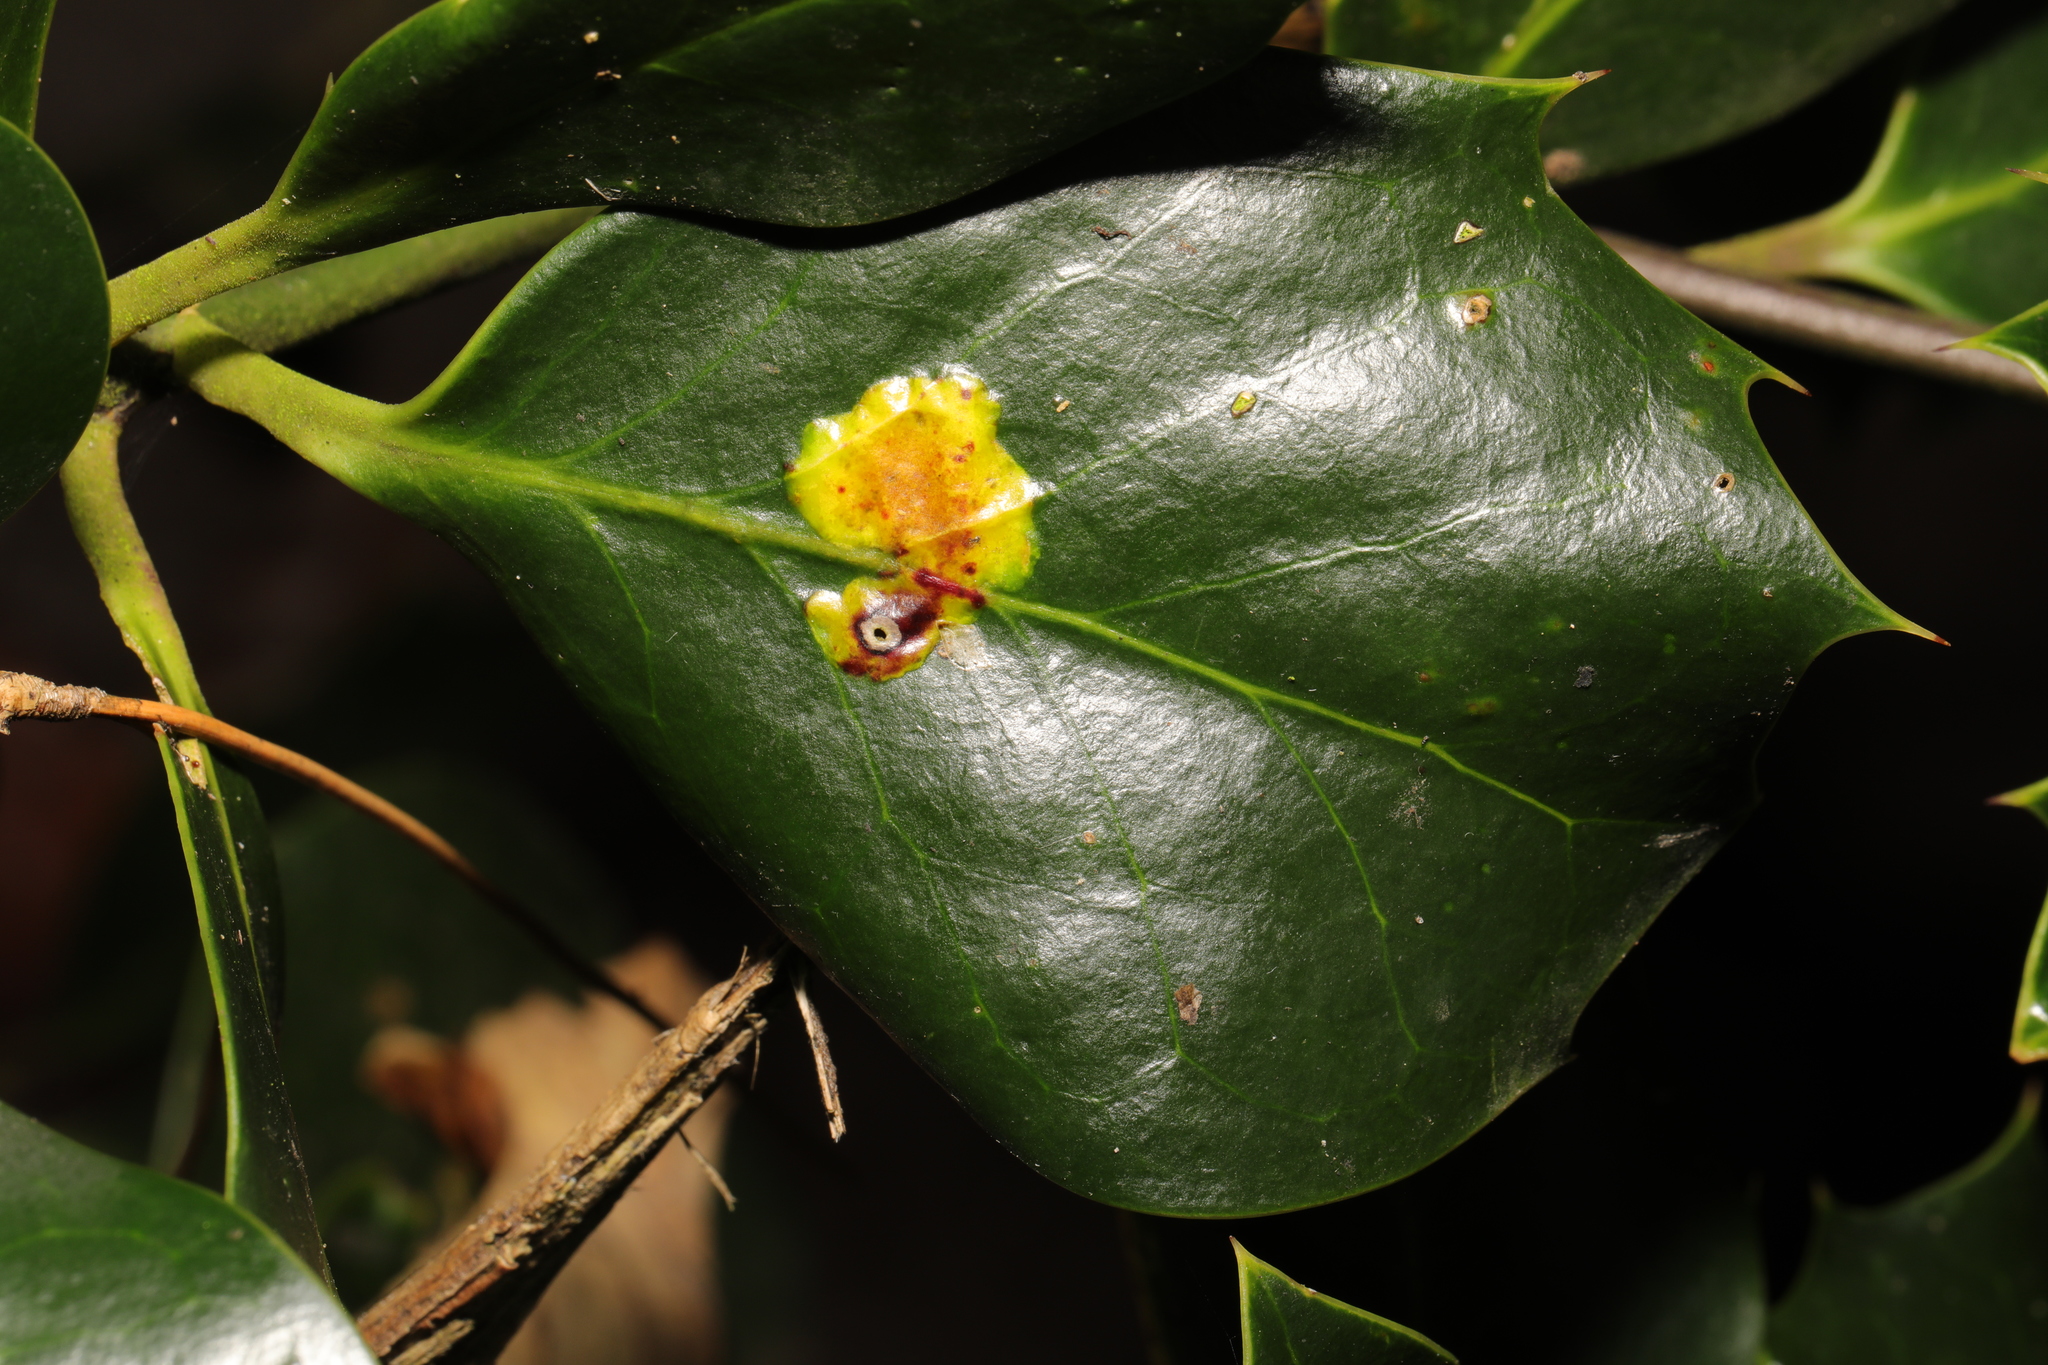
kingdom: Animalia
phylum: Arthropoda
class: Insecta
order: Diptera
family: Agromyzidae
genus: Phytomyza
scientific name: Phytomyza ilicis
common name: Holly leafminer
